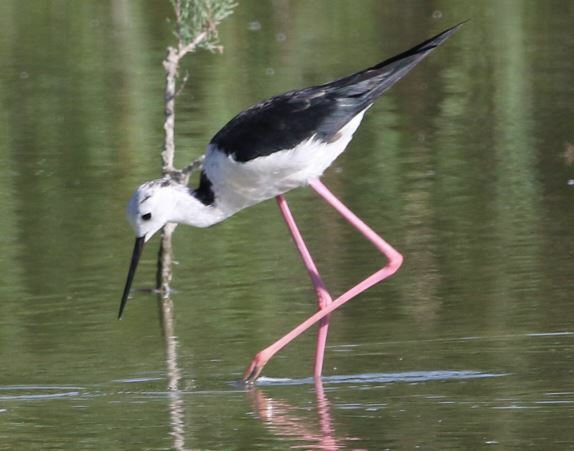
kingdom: Animalia
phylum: Chordata
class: Aves
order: Charadriiformes
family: Recurvirostridae
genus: Himantopus
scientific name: Himantopus himantopus
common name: Black-winged stilt
